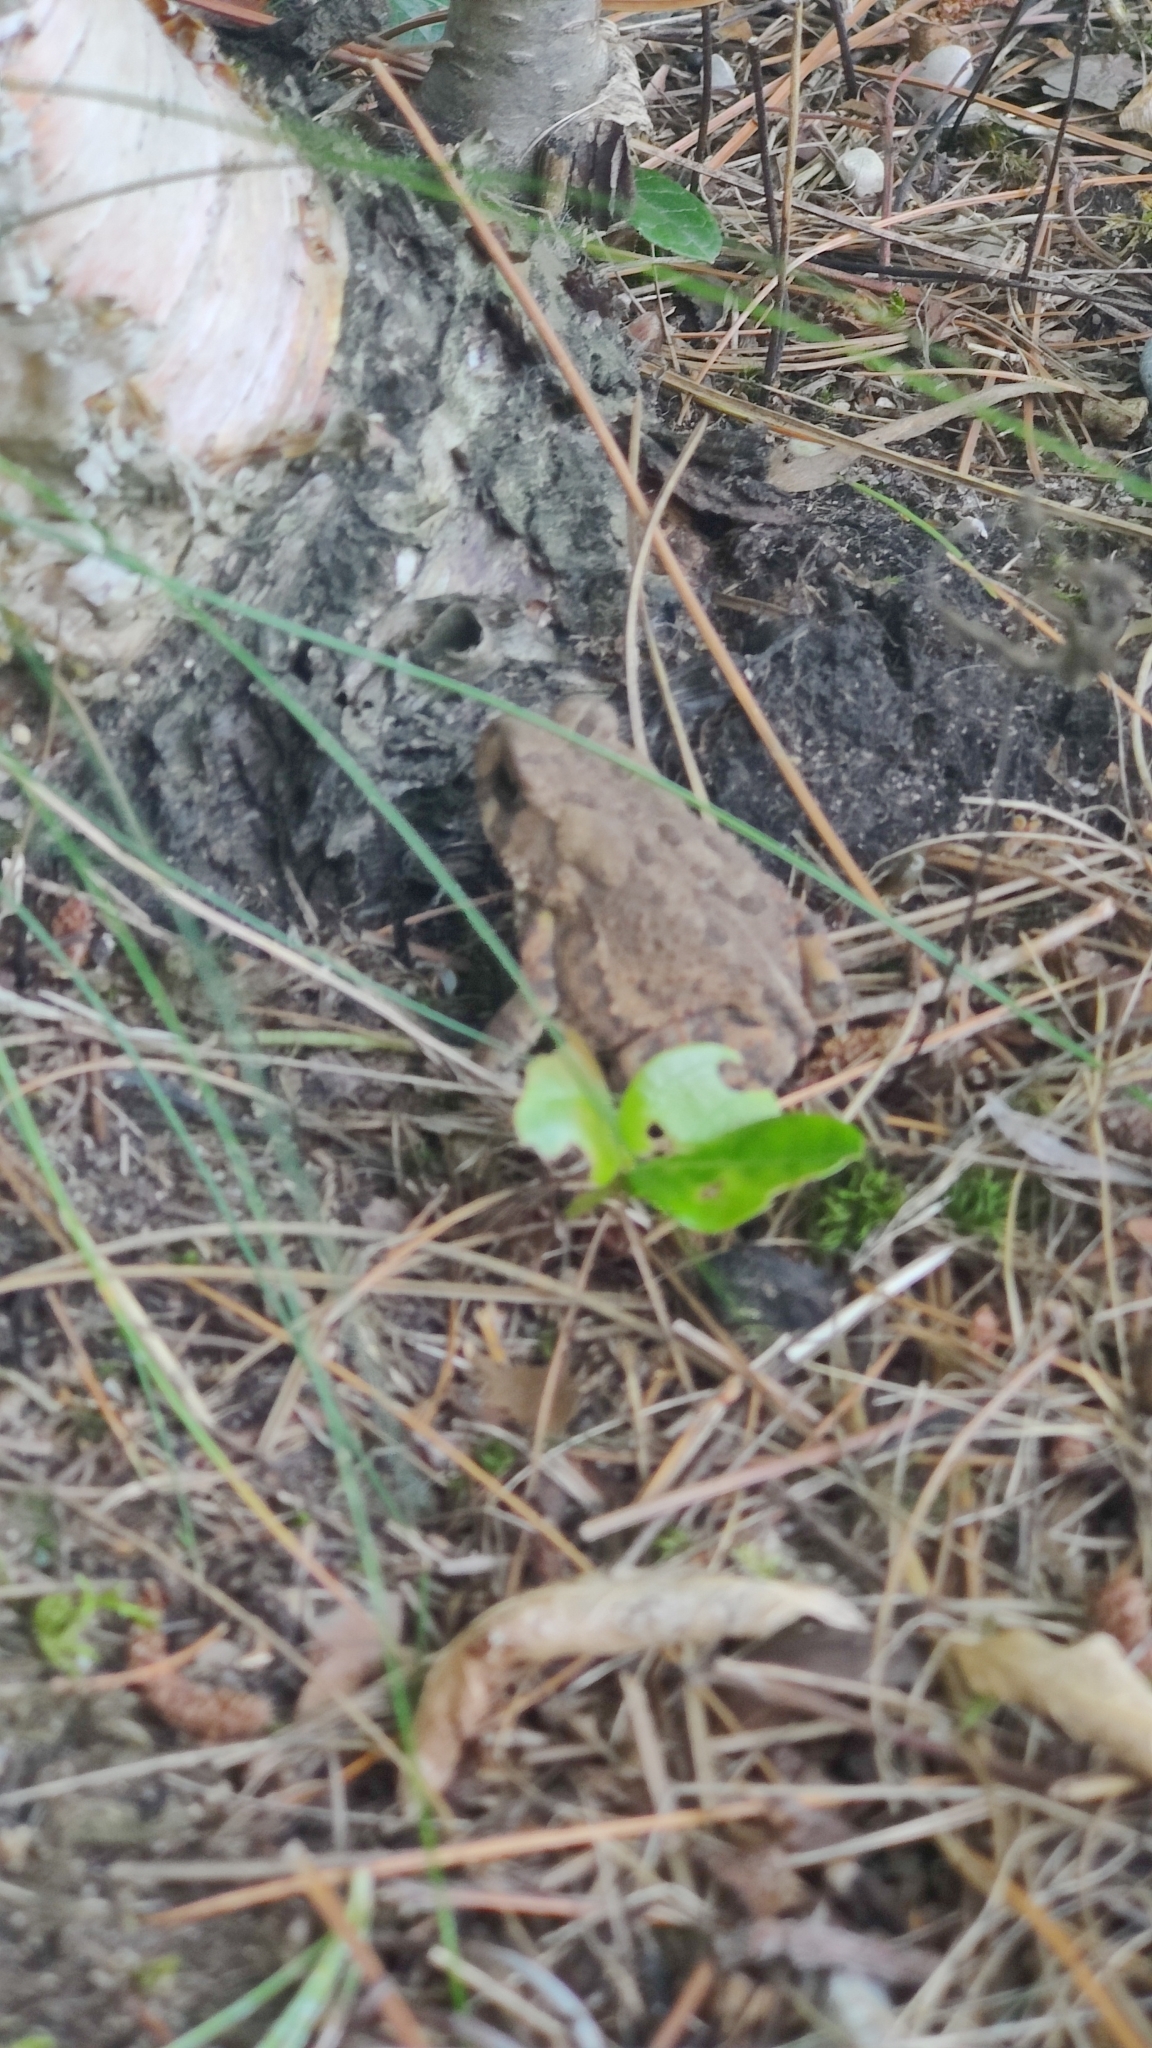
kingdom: Animalia
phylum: Chordata
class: Amphibia
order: Anura
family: Bufonidae
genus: Anaxyrus
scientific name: Anaxyrus americanus
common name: American toad
